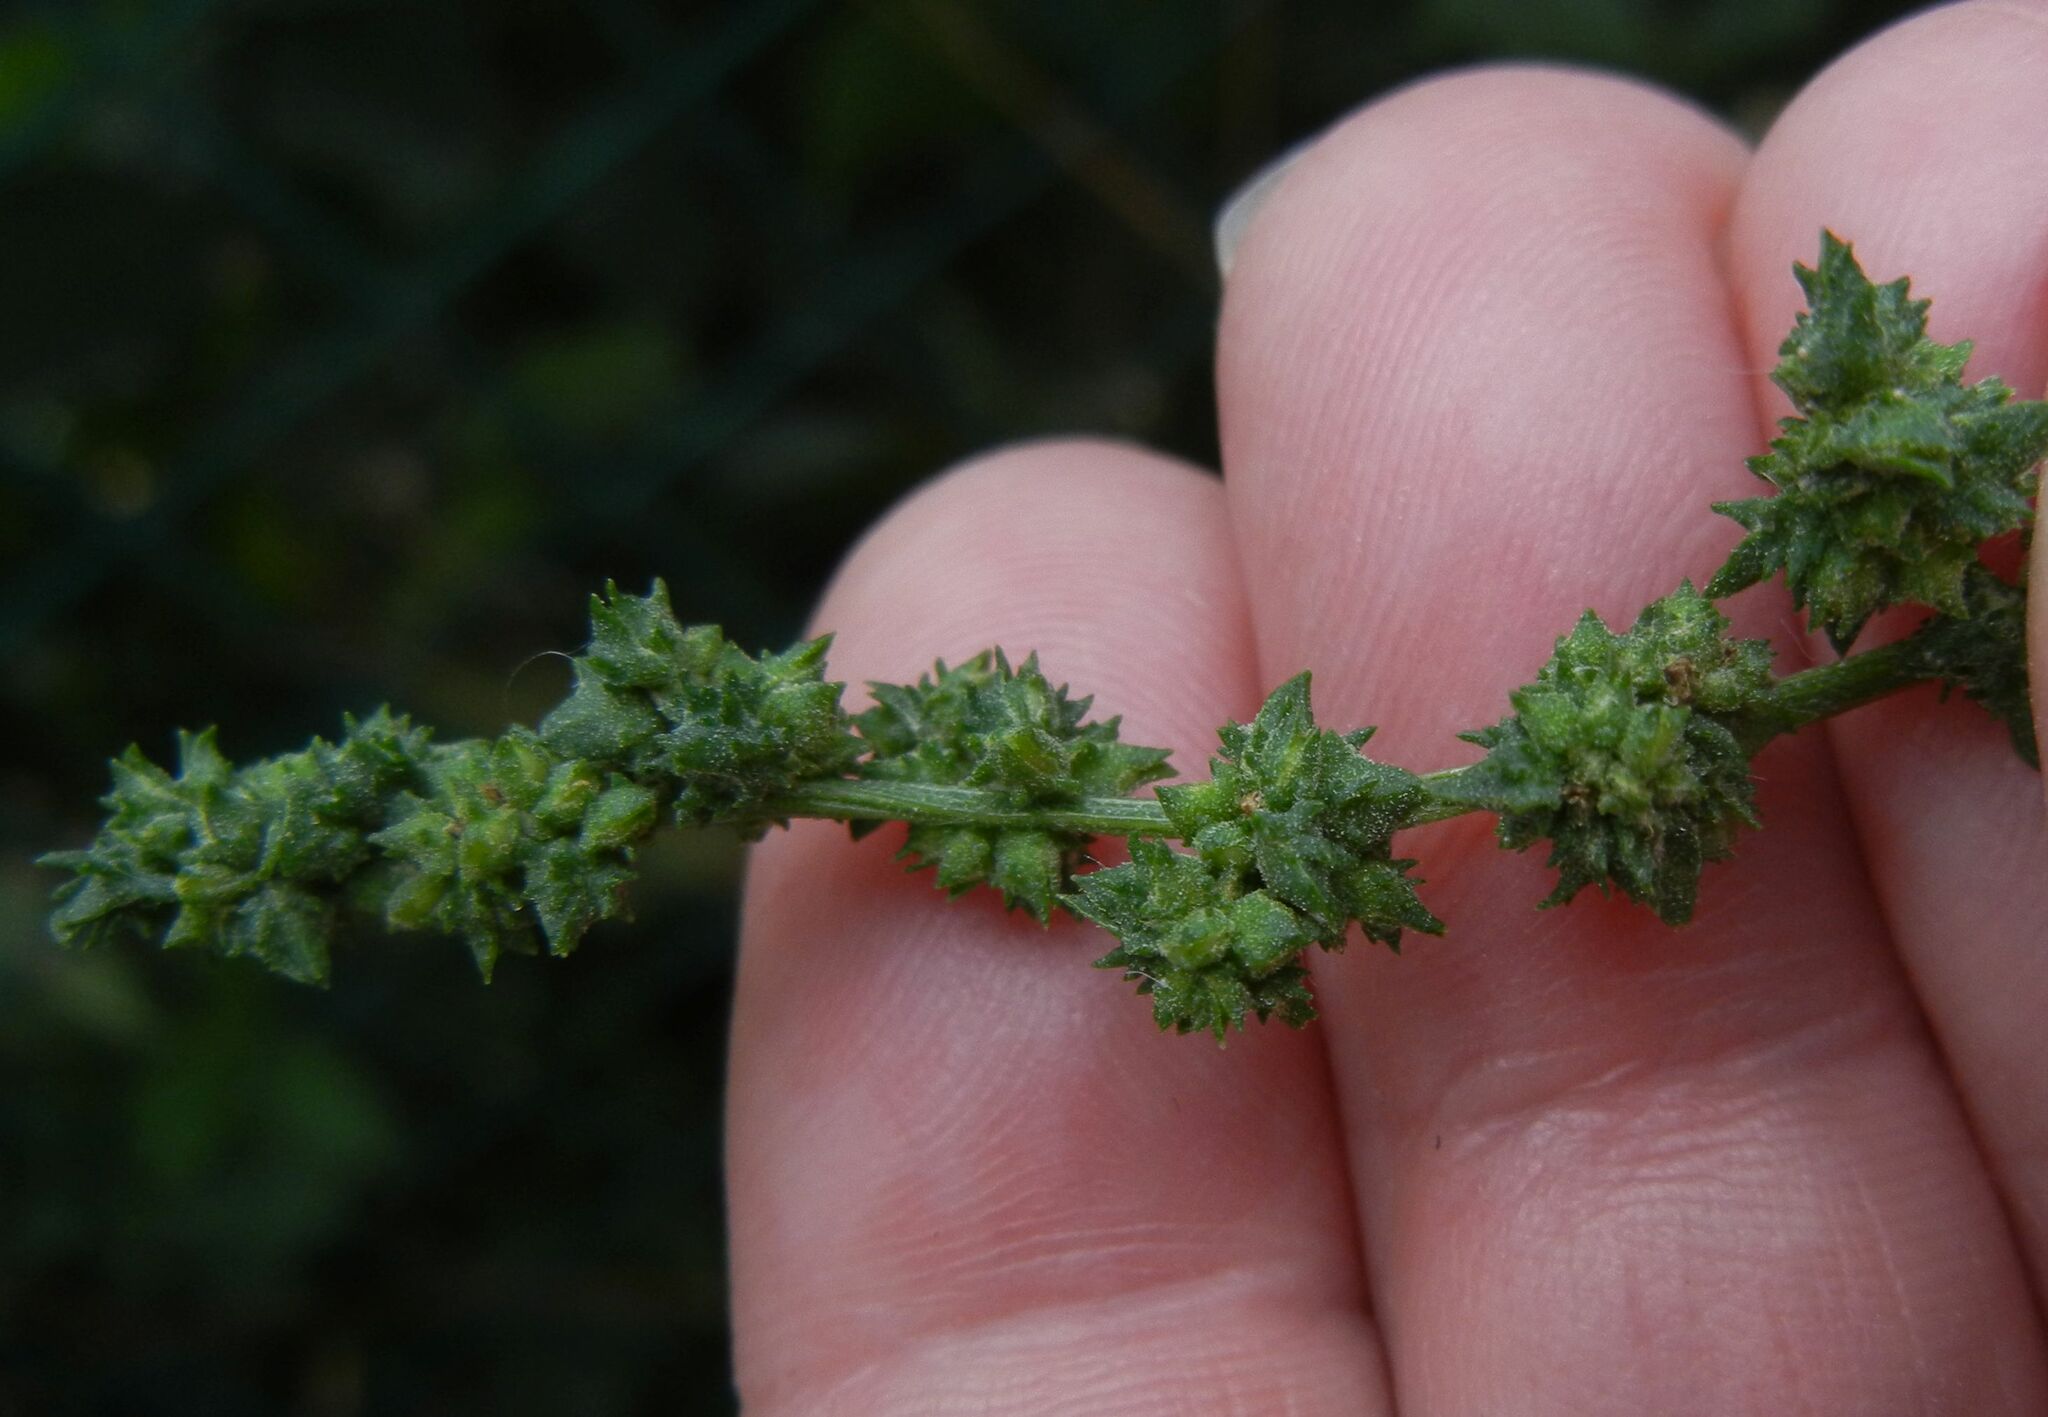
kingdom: Plantae
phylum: Tracheophyta
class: Magnoliopsida
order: Caryophyllales
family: Amaranthaceae
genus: Atriplex
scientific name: Atriplex patula
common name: Common orache
